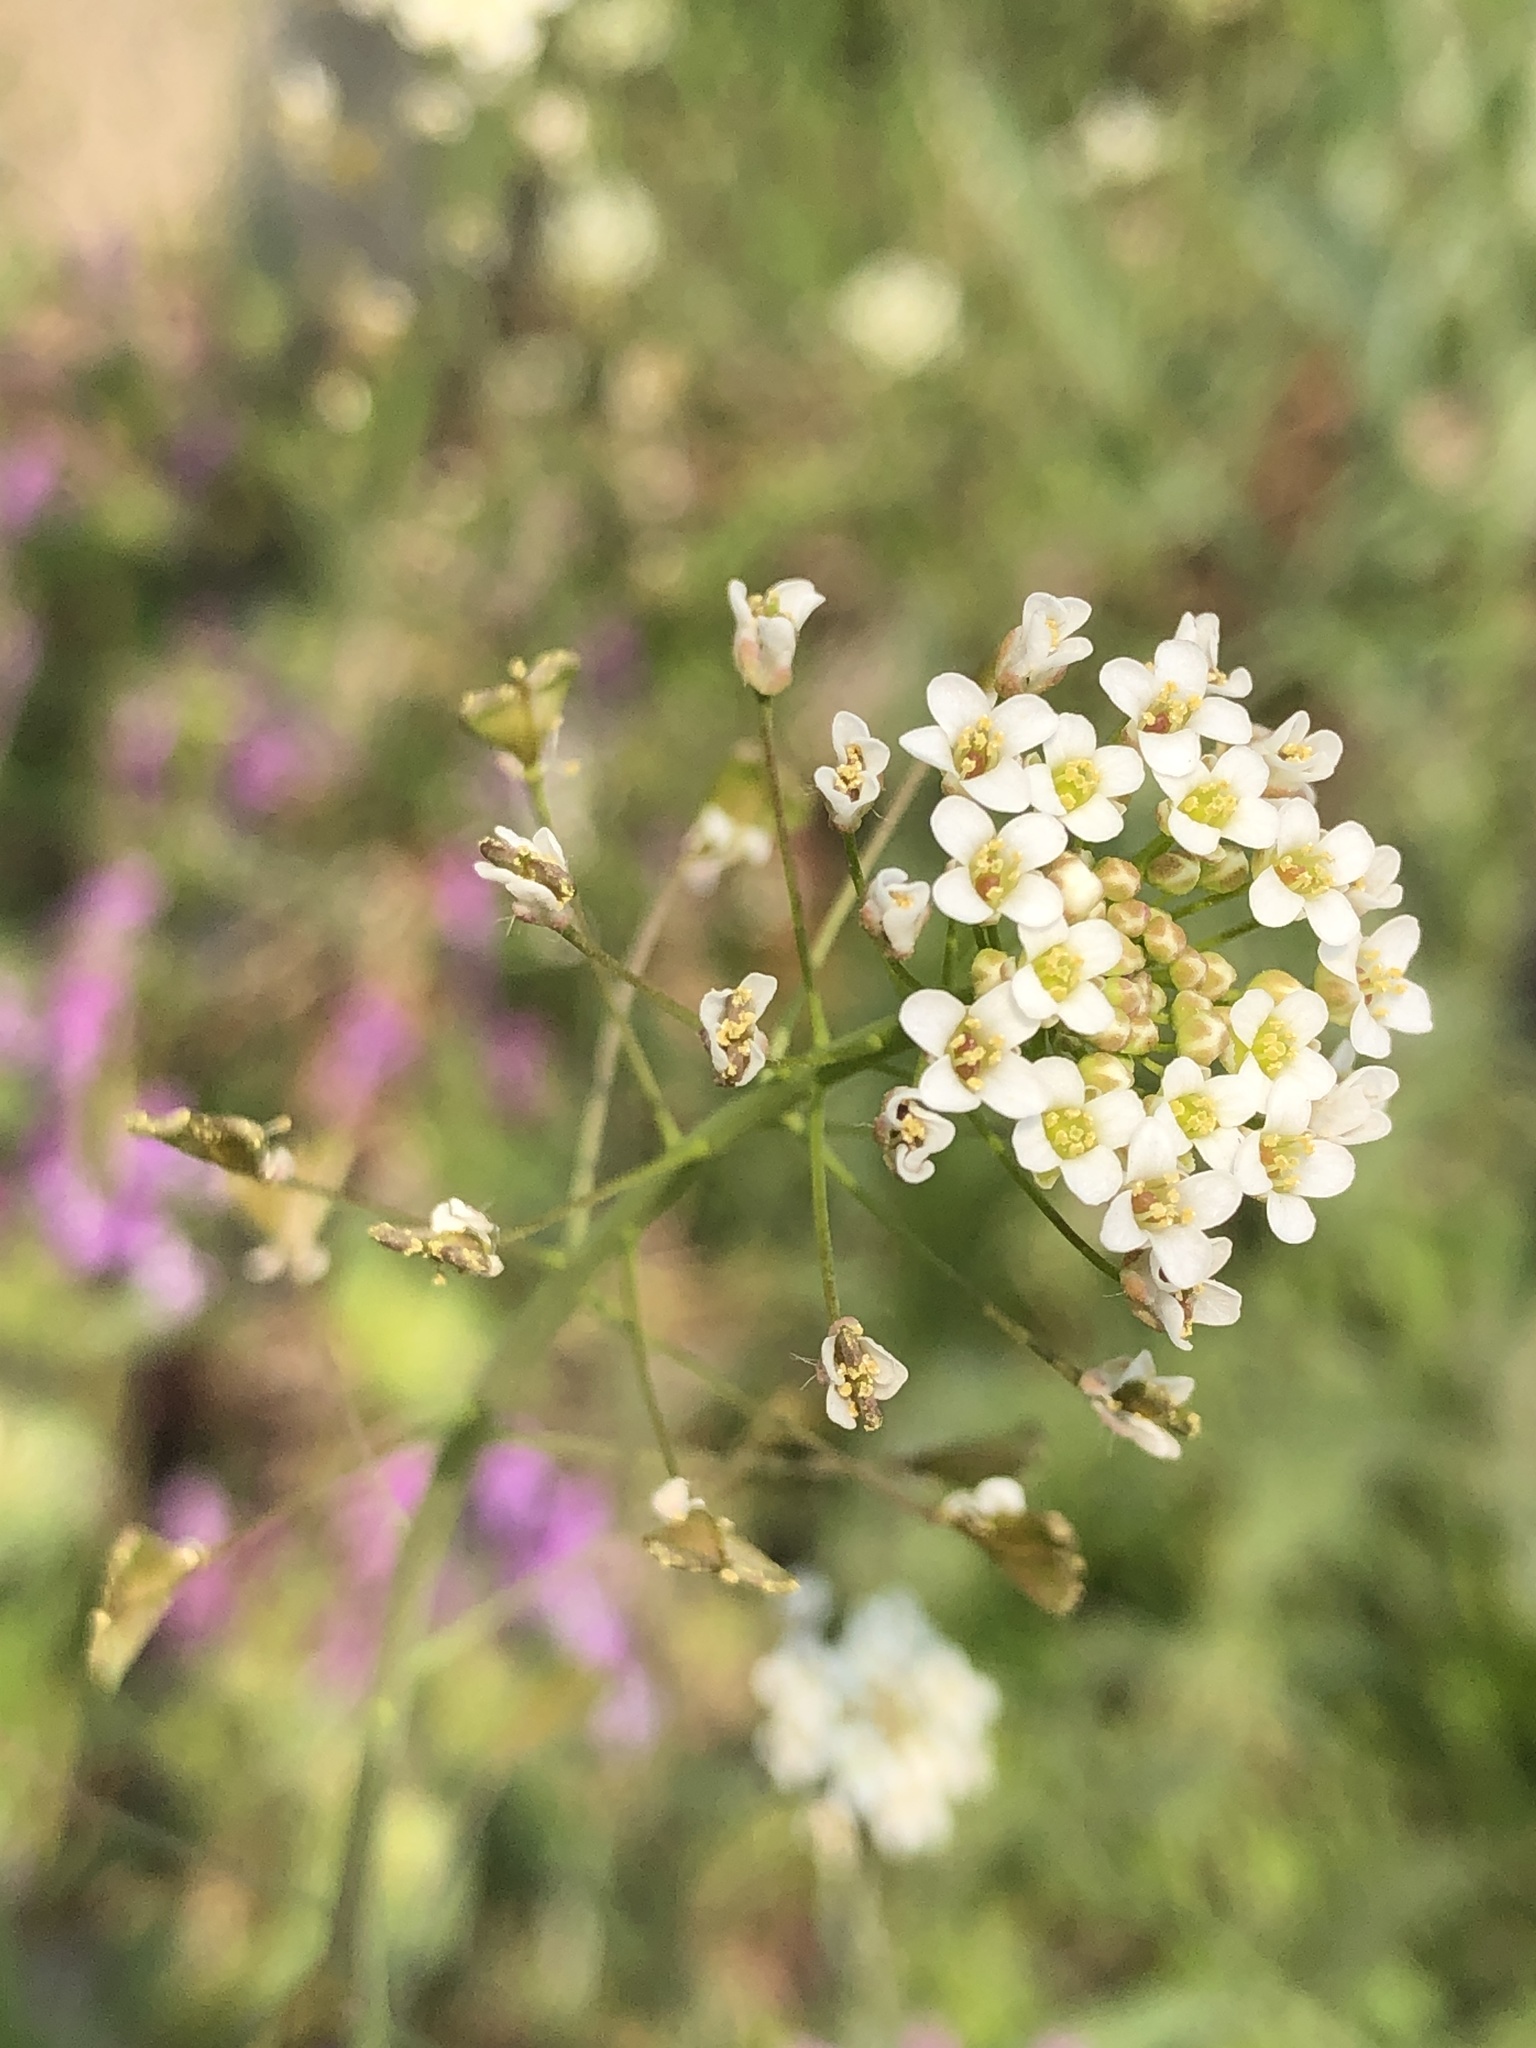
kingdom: Plantae
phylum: Tracheophyta
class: Magnoliopsida
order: Brassicales
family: Brassicaceae
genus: Capsella
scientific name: Capsella bursa-pastoris
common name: Shepherd's purse
